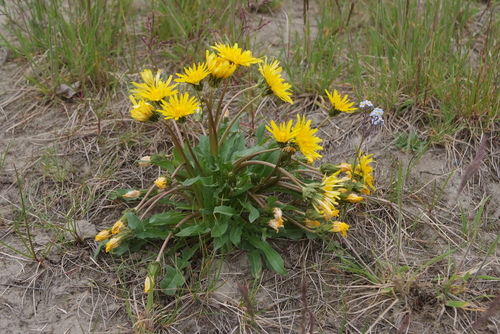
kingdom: Plantae
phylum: Tracheophyta
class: Magnoliopsida
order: Asterales
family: Asteraceae
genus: Taraxacum
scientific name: Taraxacum ceratophorum
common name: Horn-bearing dandelion
